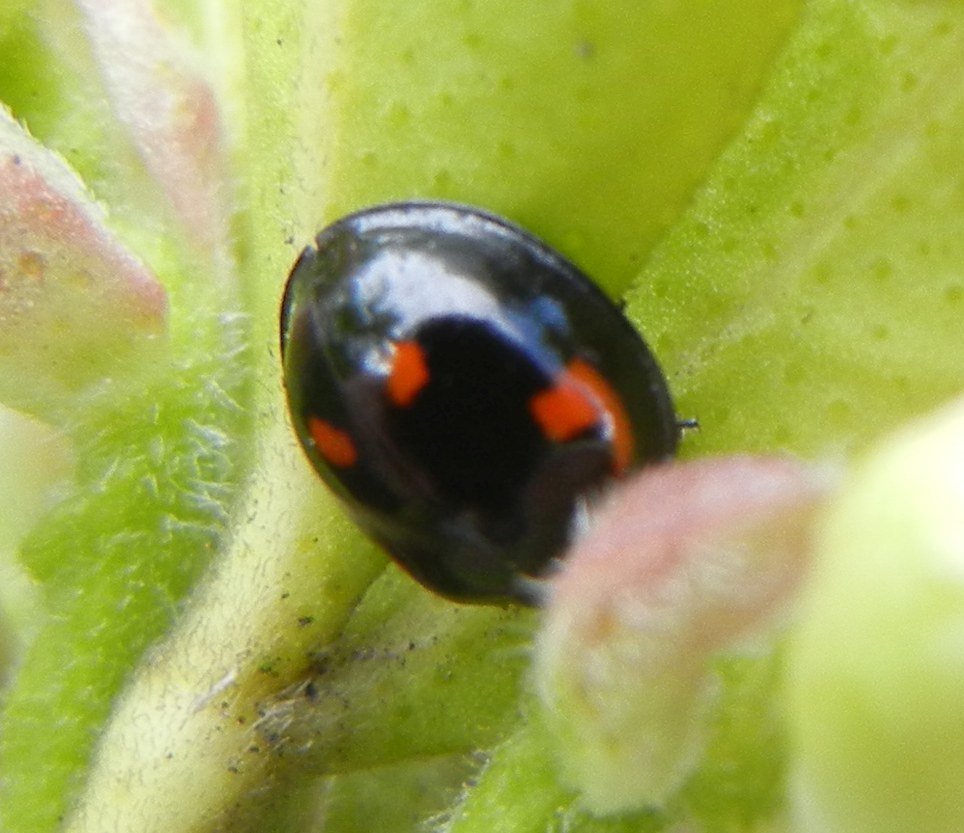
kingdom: Animalia
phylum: Arthropoda
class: Insecta
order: Coleoptera
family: Coccinellidae
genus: Brumus
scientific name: Brumus quadripustulatus
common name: Ladybird beetle
